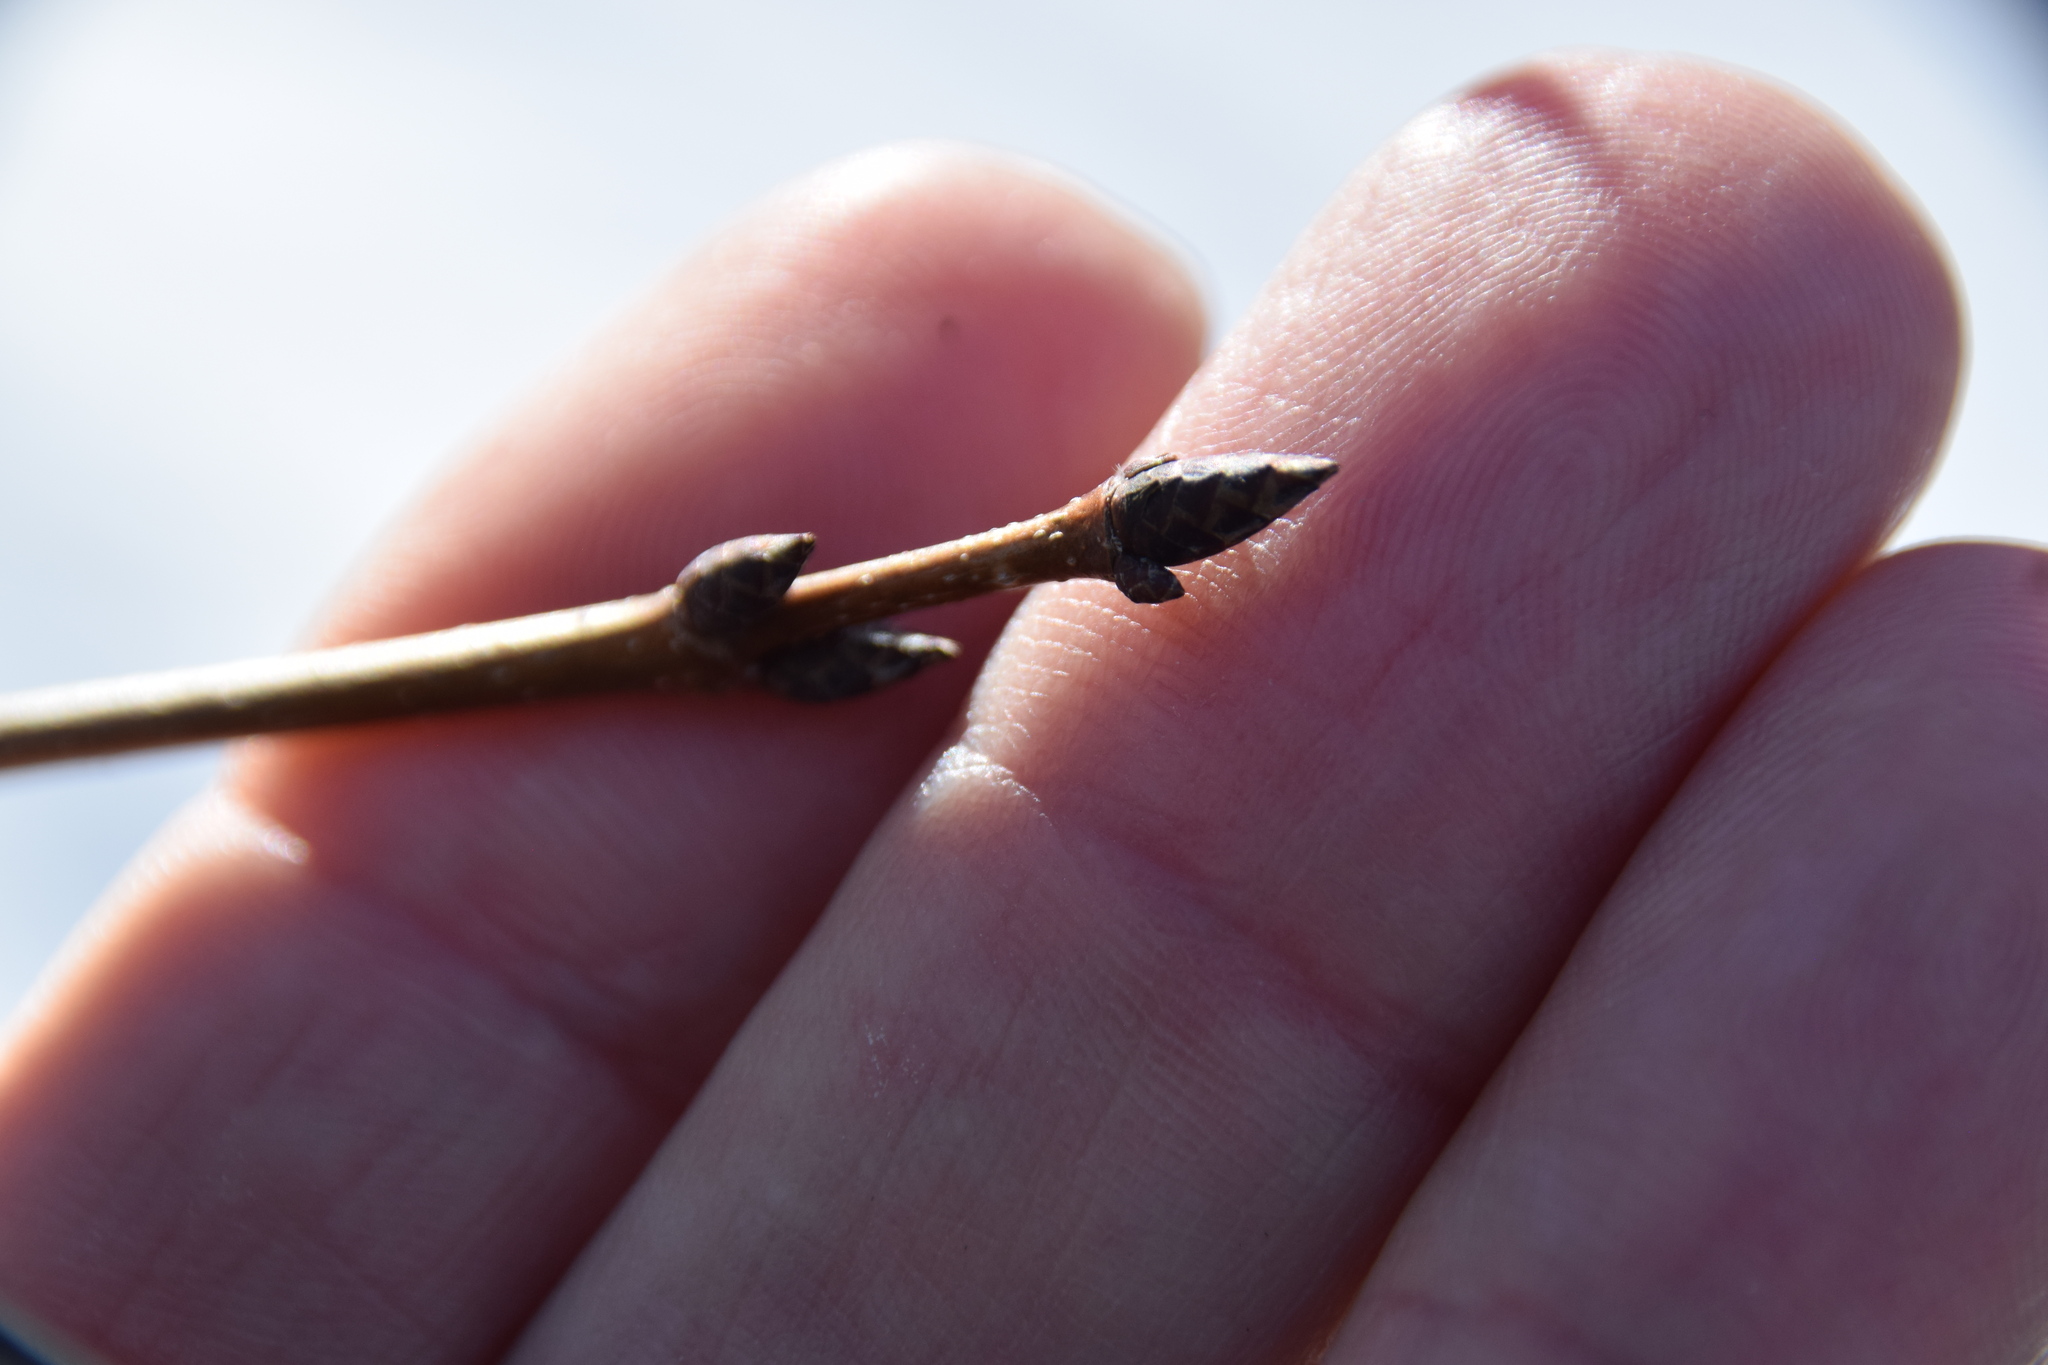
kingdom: Plantae
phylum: Tracheophyta
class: Magnoliopsida
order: Sapindales
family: Sapindaceae
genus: Acer
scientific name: Acer saccharum
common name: Sugar maple
